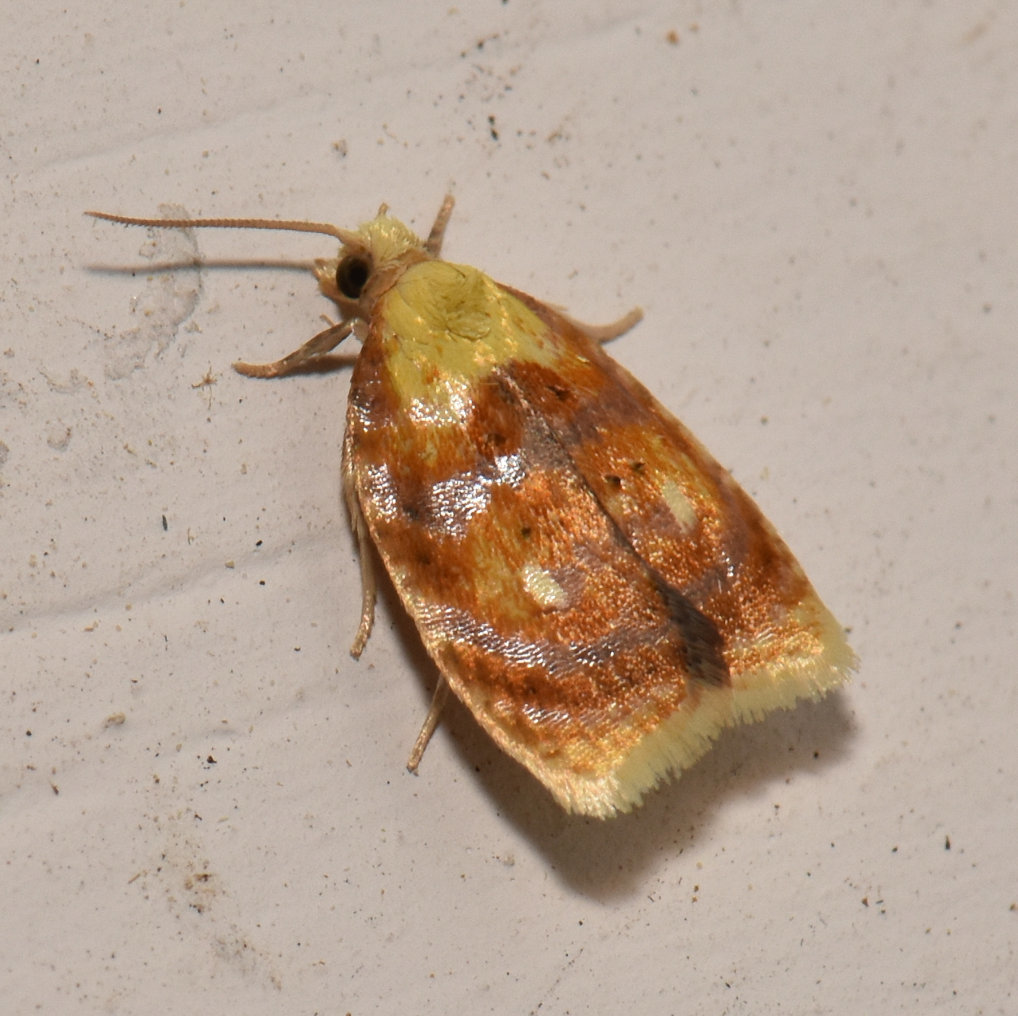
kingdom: Animalia
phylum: Arthropoda
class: Insecta
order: Lepidoptera
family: Tortricidae
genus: Acleris
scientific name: Acleris curvalana
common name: Blueberry leaftier moth
